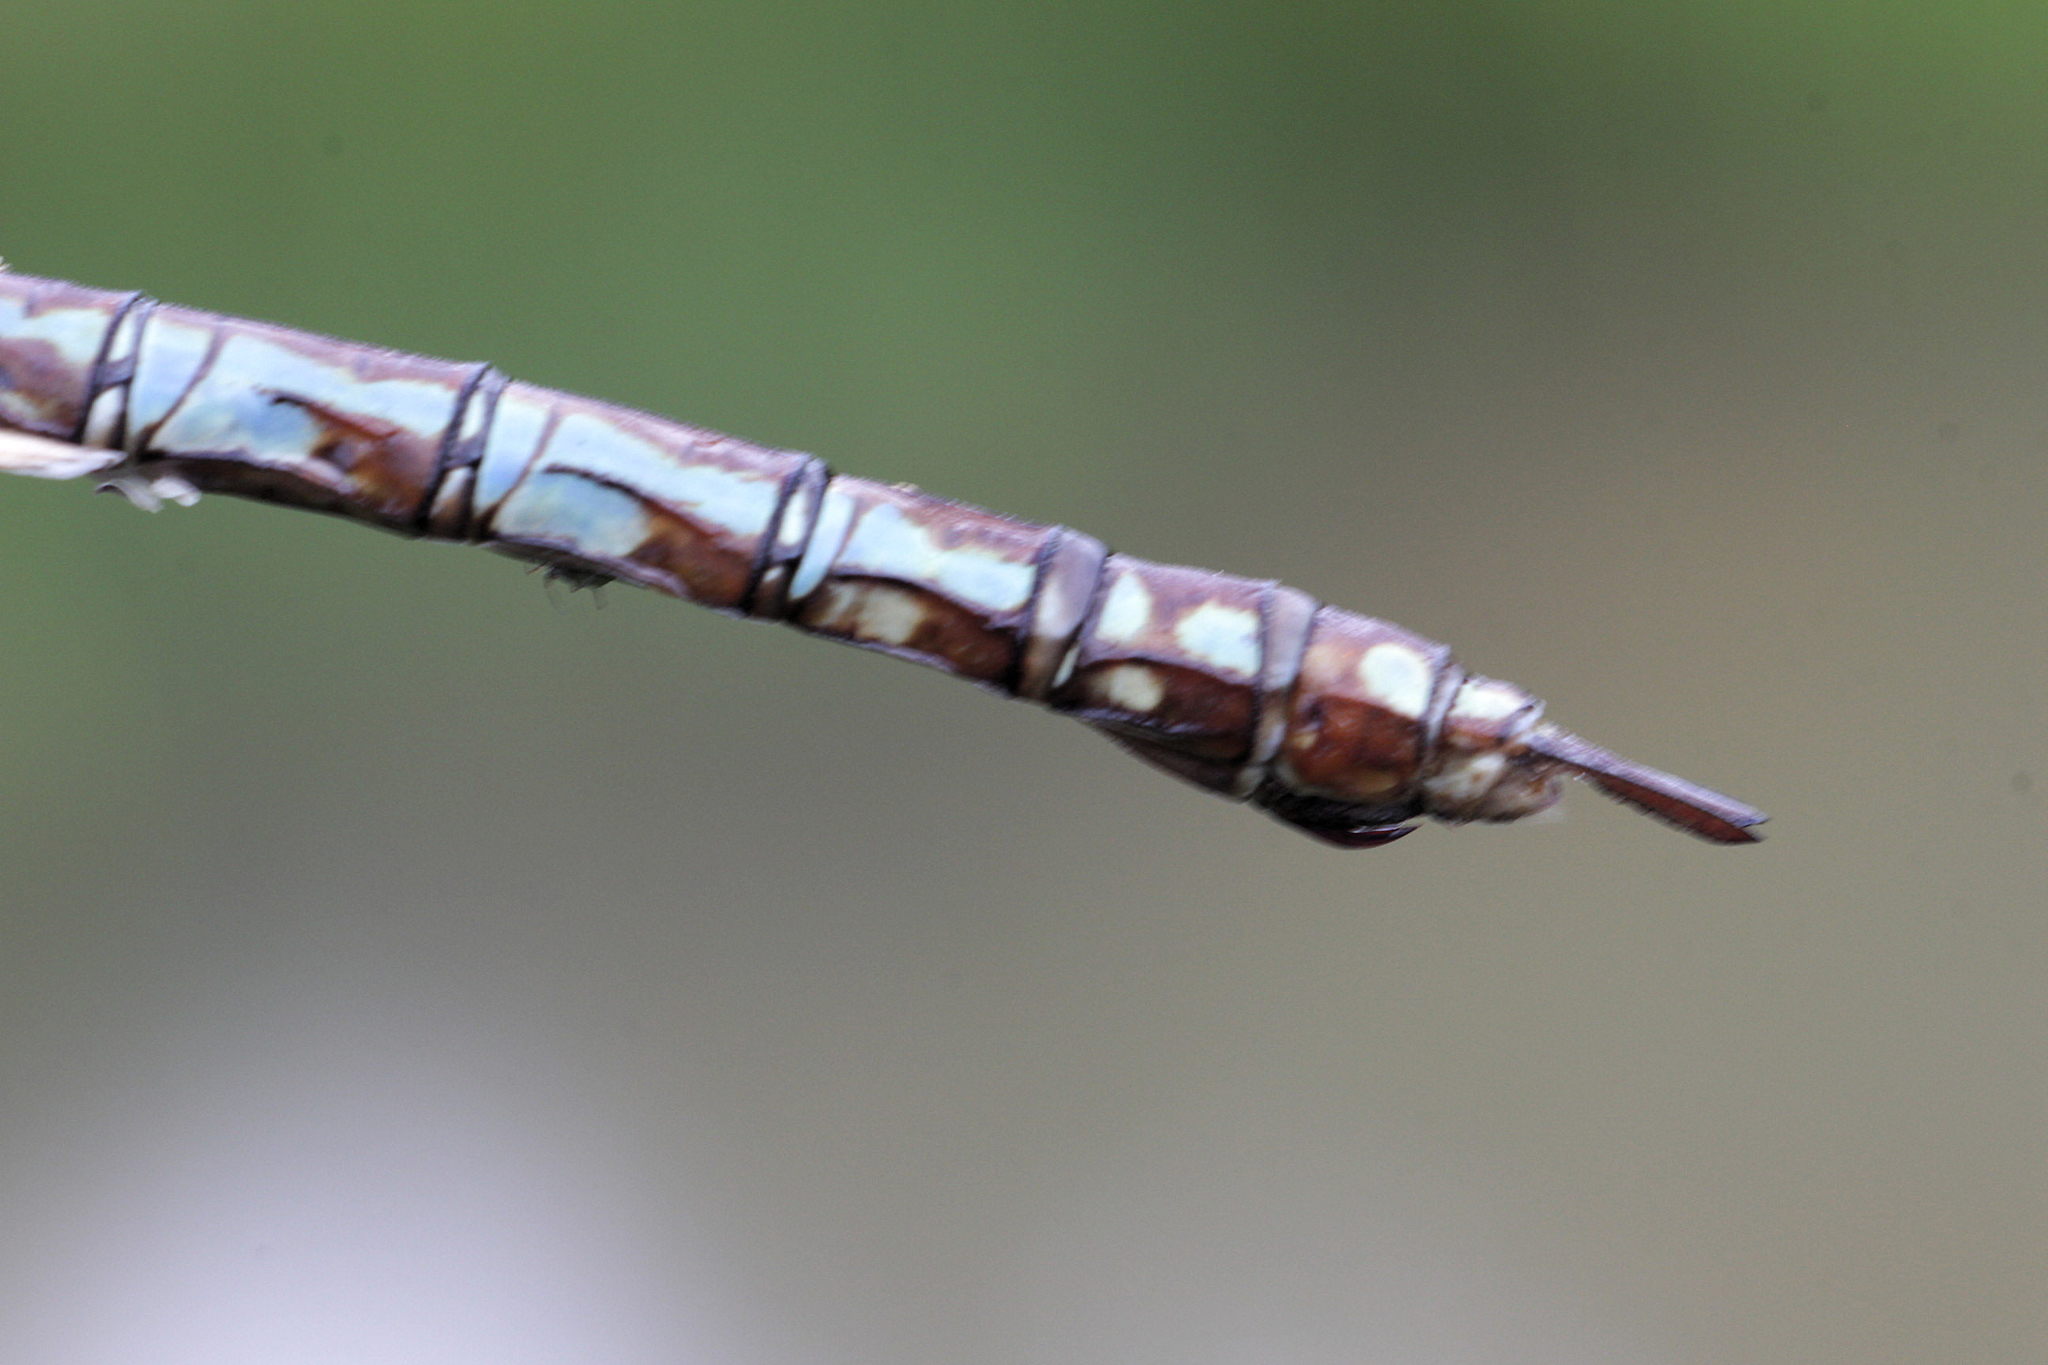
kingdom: Animalia
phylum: Arthropoda
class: Insecta
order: Odonata
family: Aeshnidae
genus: Anax
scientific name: Anax imperator
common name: Emperor dragonfly
